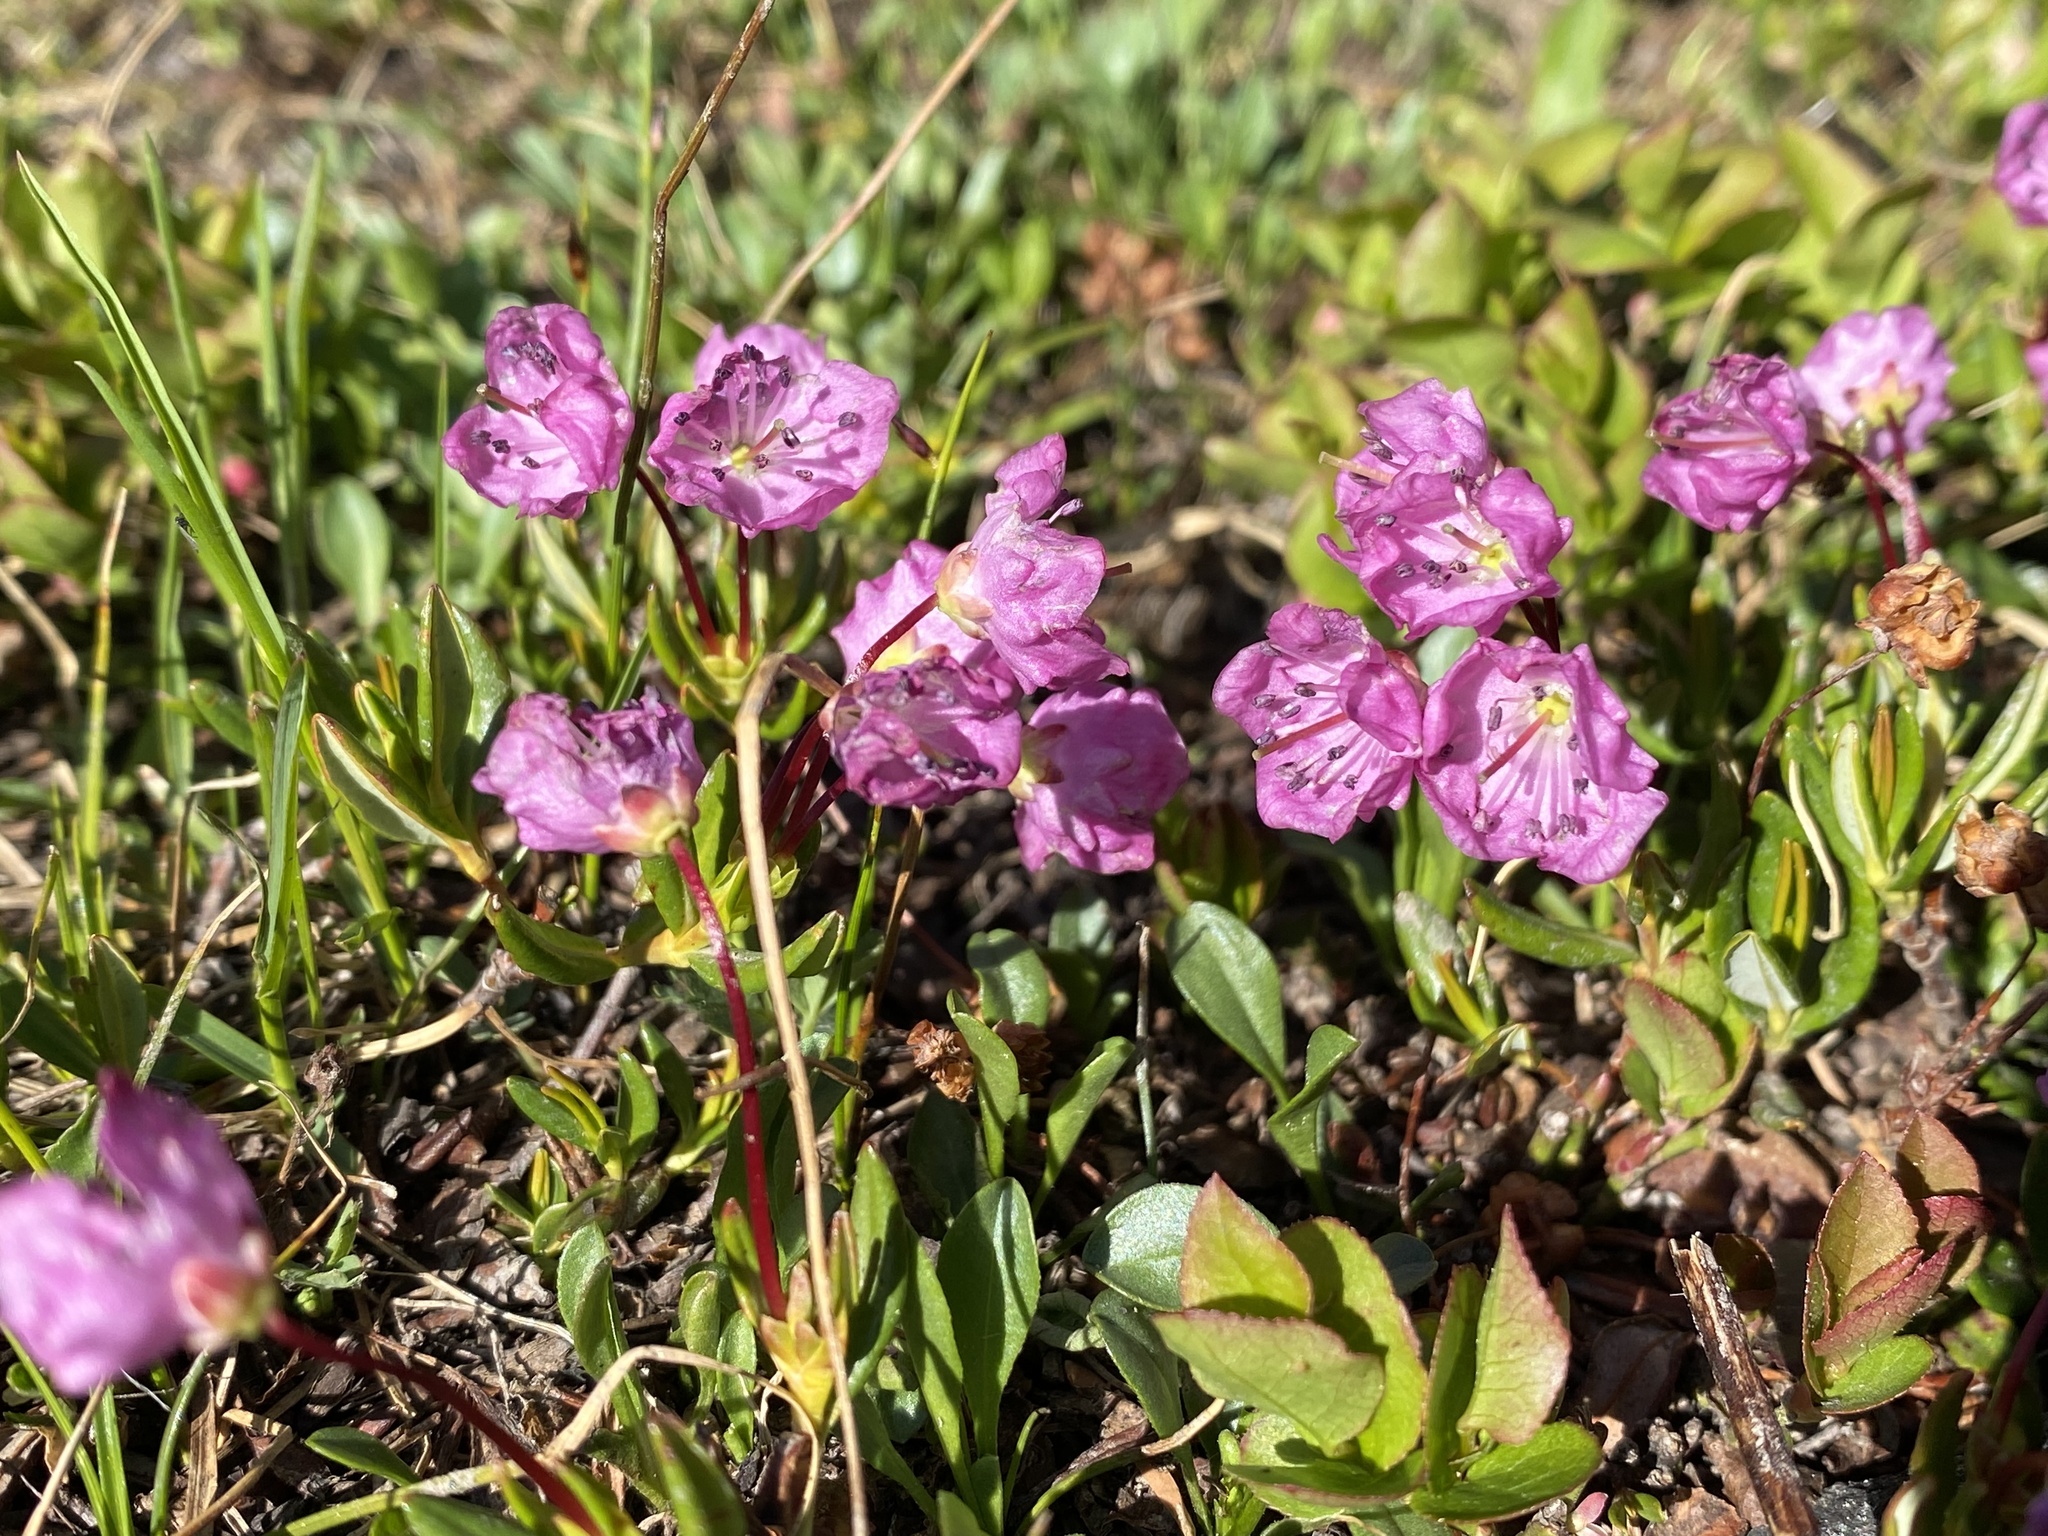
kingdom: Plantae
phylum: Tracheophyta
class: Magnoliopsida
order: Ericales
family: Ericaceae
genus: Kalmia
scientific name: Kalmia microphylla
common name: Alpine bog laurel
